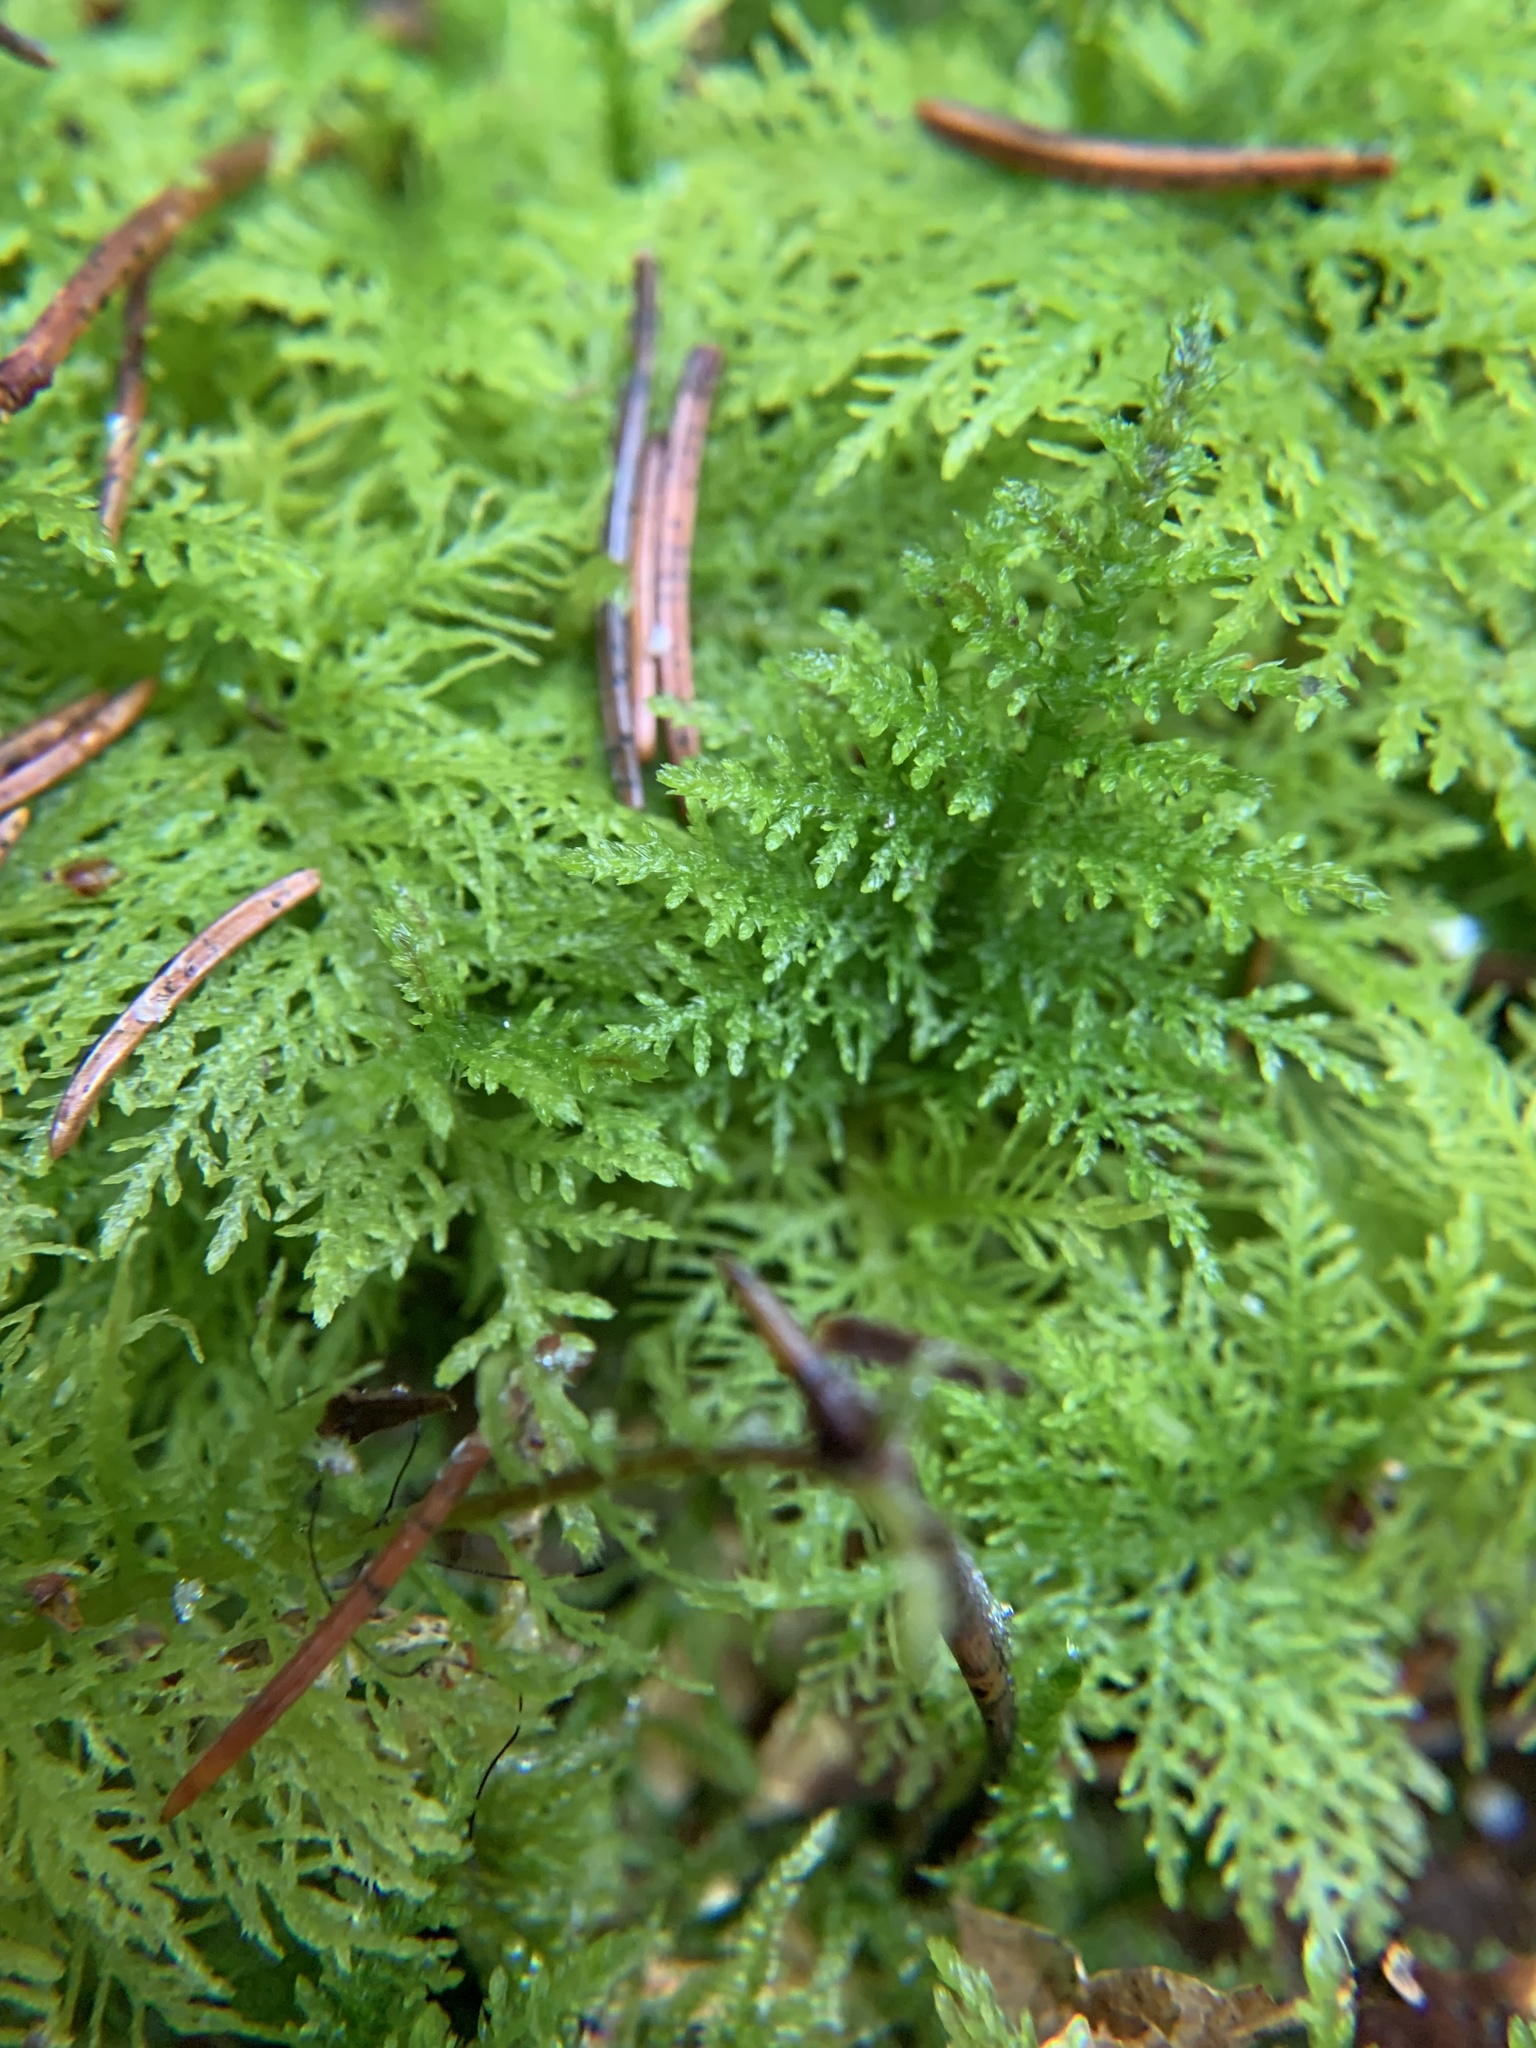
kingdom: Plantae
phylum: Bryophyta
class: Bryopsida
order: Hypnales
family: Thuidiaceae
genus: Thuidium
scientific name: Thuidium tamariscinum
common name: Common tamarisk-moss
